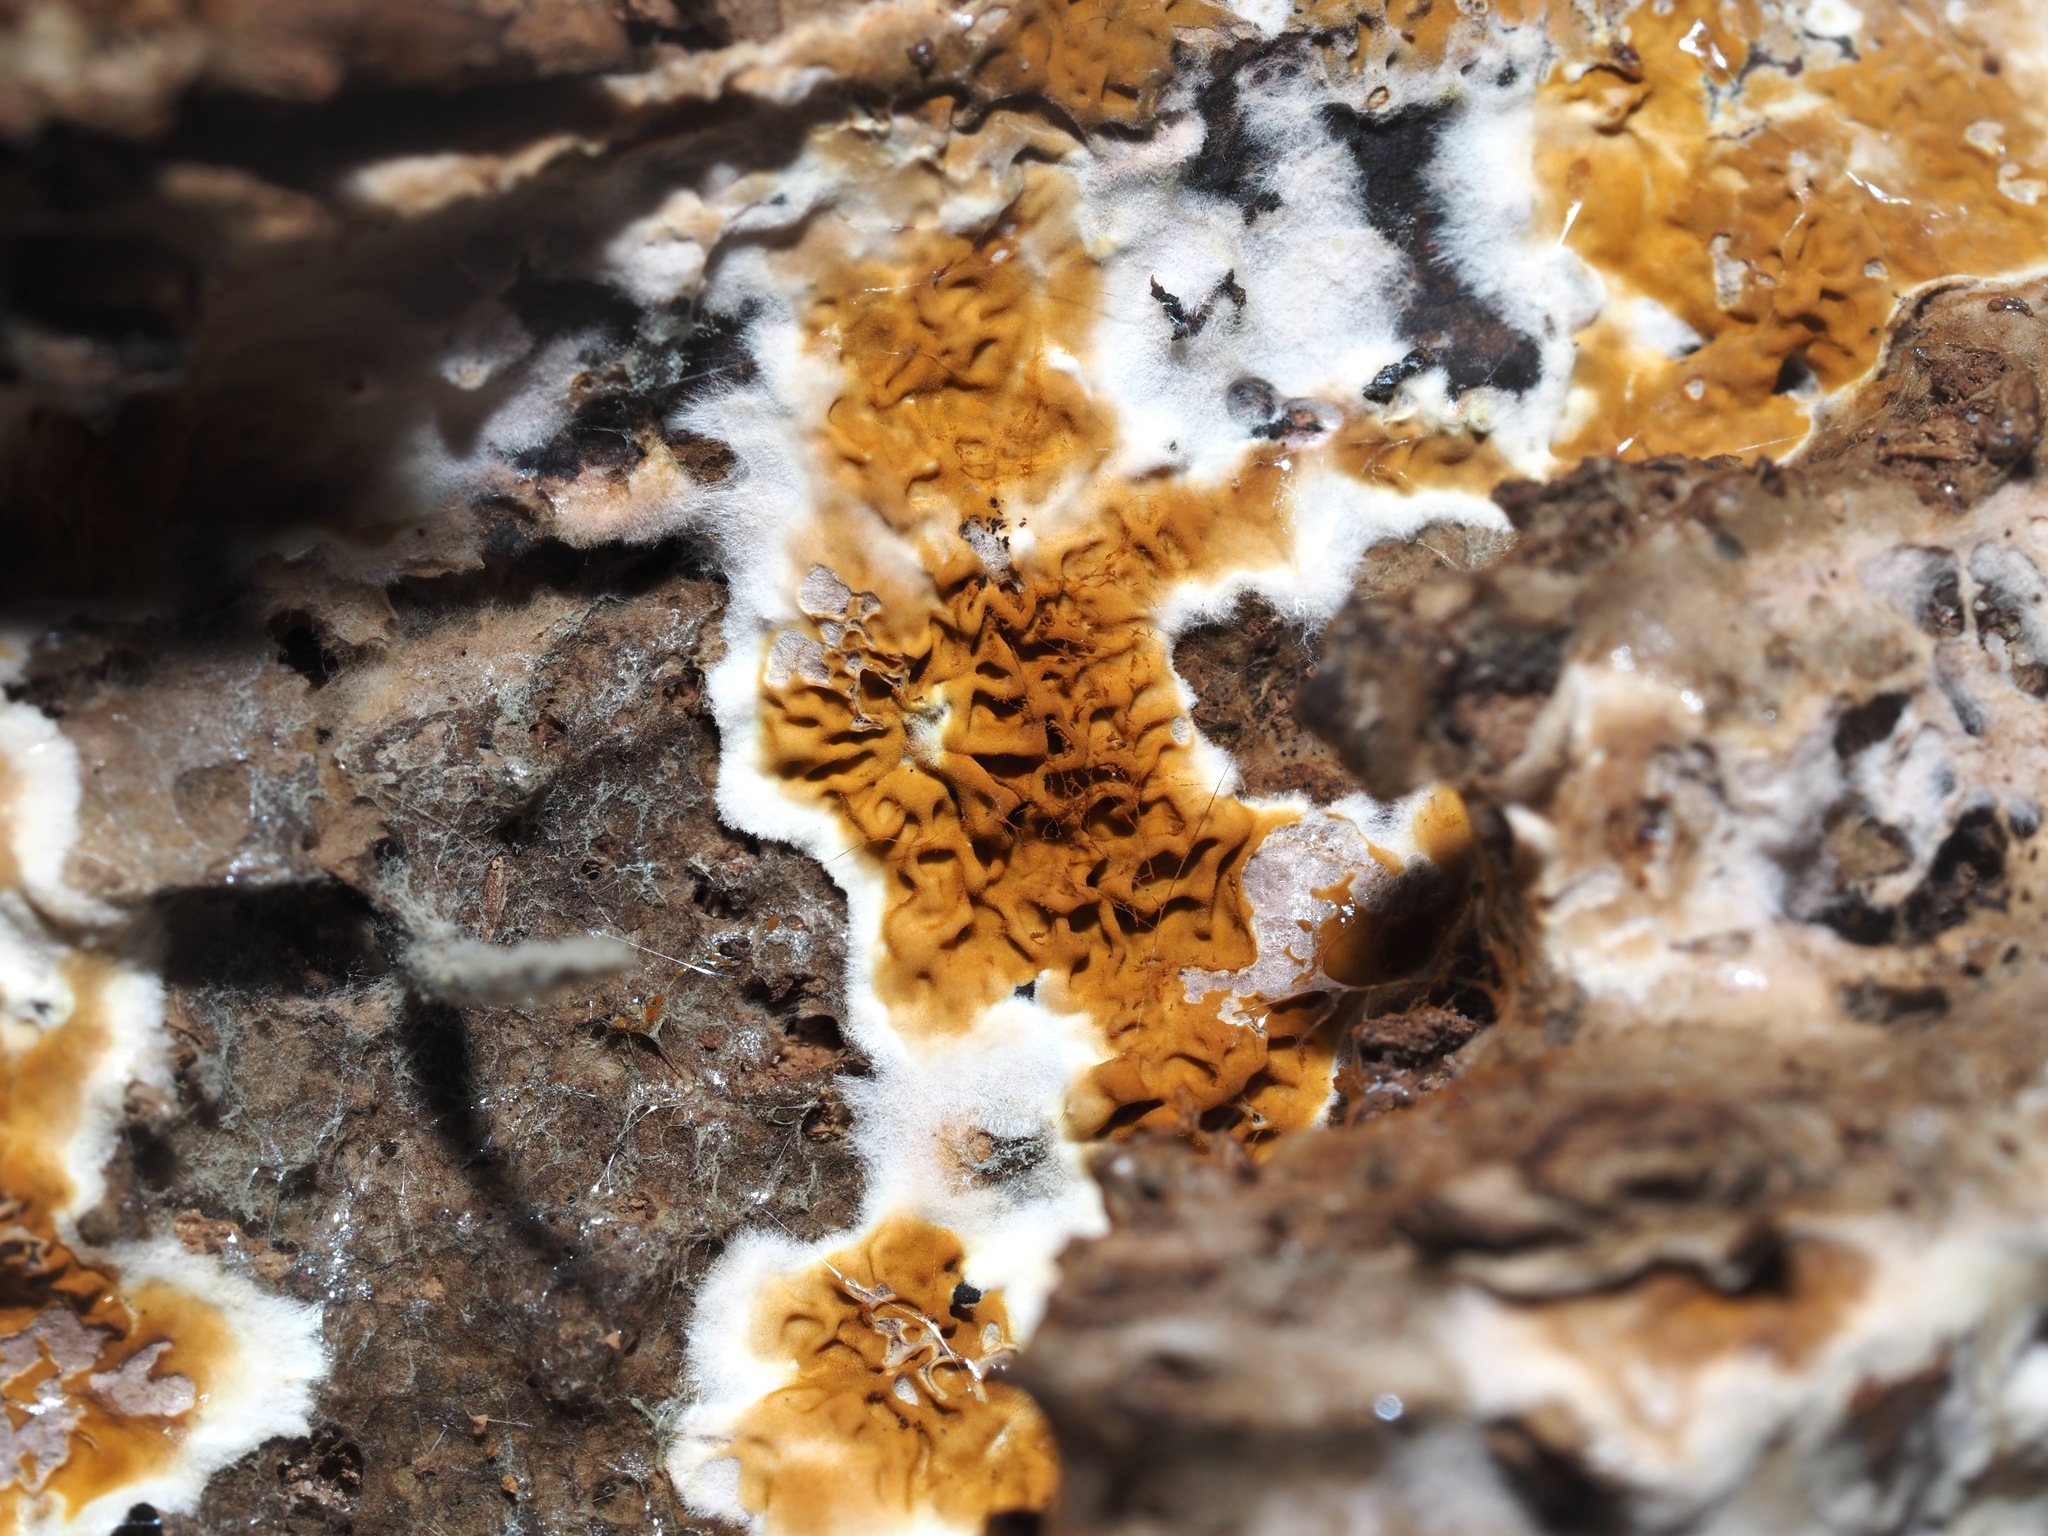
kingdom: Fungi
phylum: Basidiomycota
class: Agaricomycetes
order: Boletales
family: Serpulaceae
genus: Serpula
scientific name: Serpula himantioides
